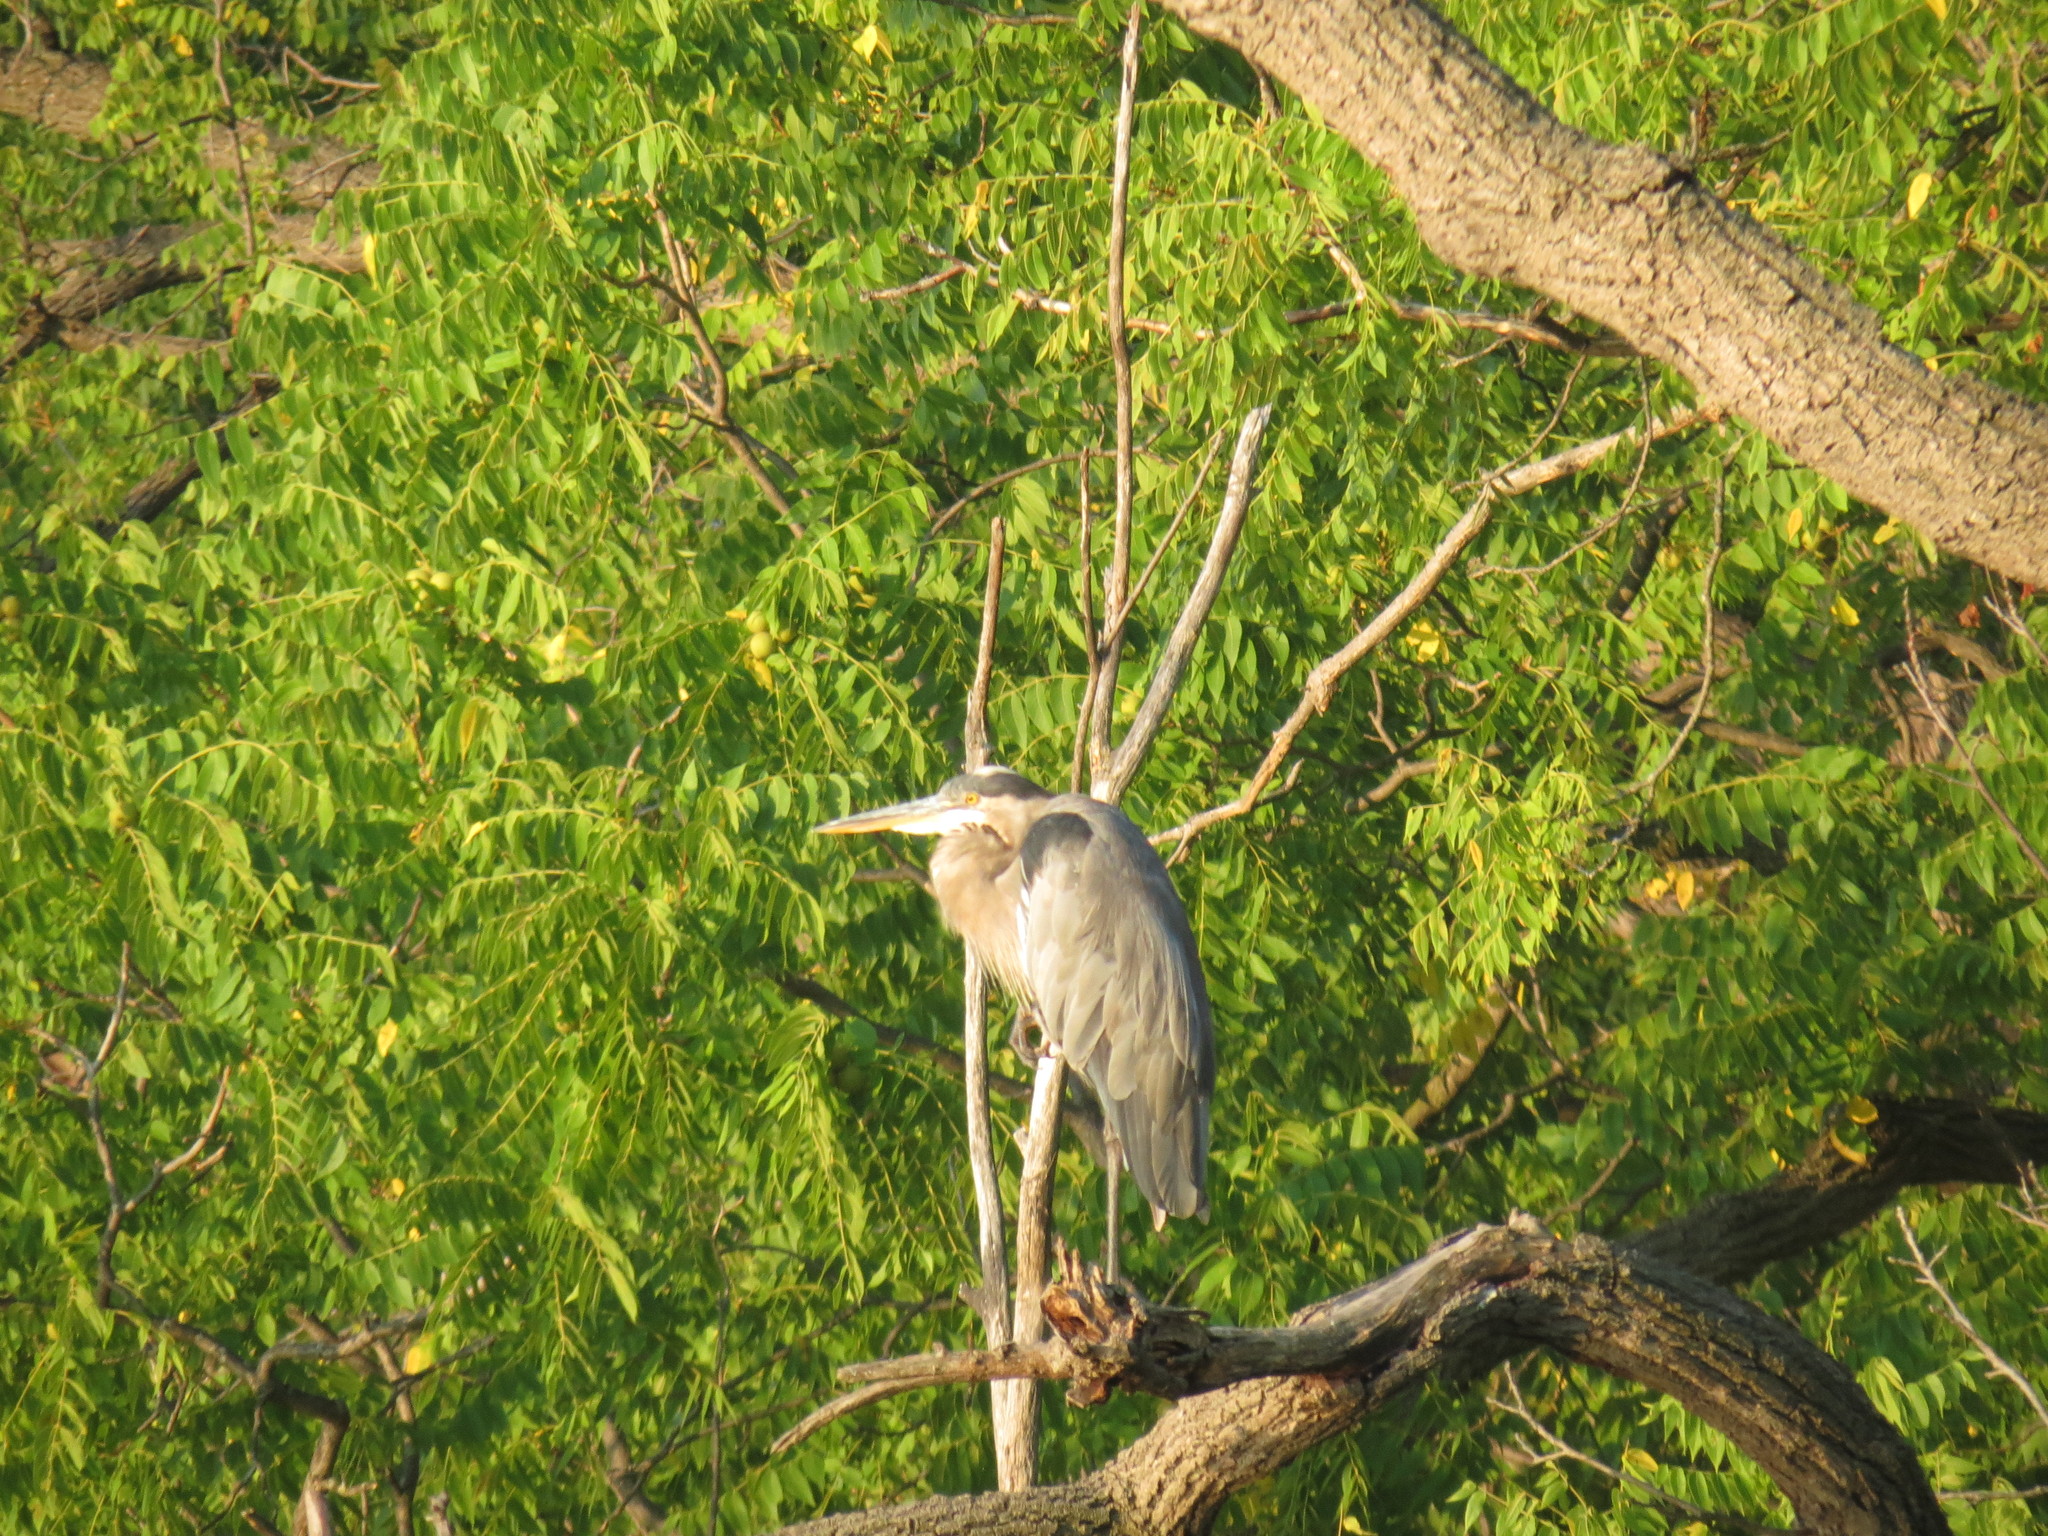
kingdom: Animalia
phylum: Chordata
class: Aves
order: Pelecaniformes
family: Ardeidae
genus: Ardea
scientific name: Ardea herodias
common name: Great blue heron
